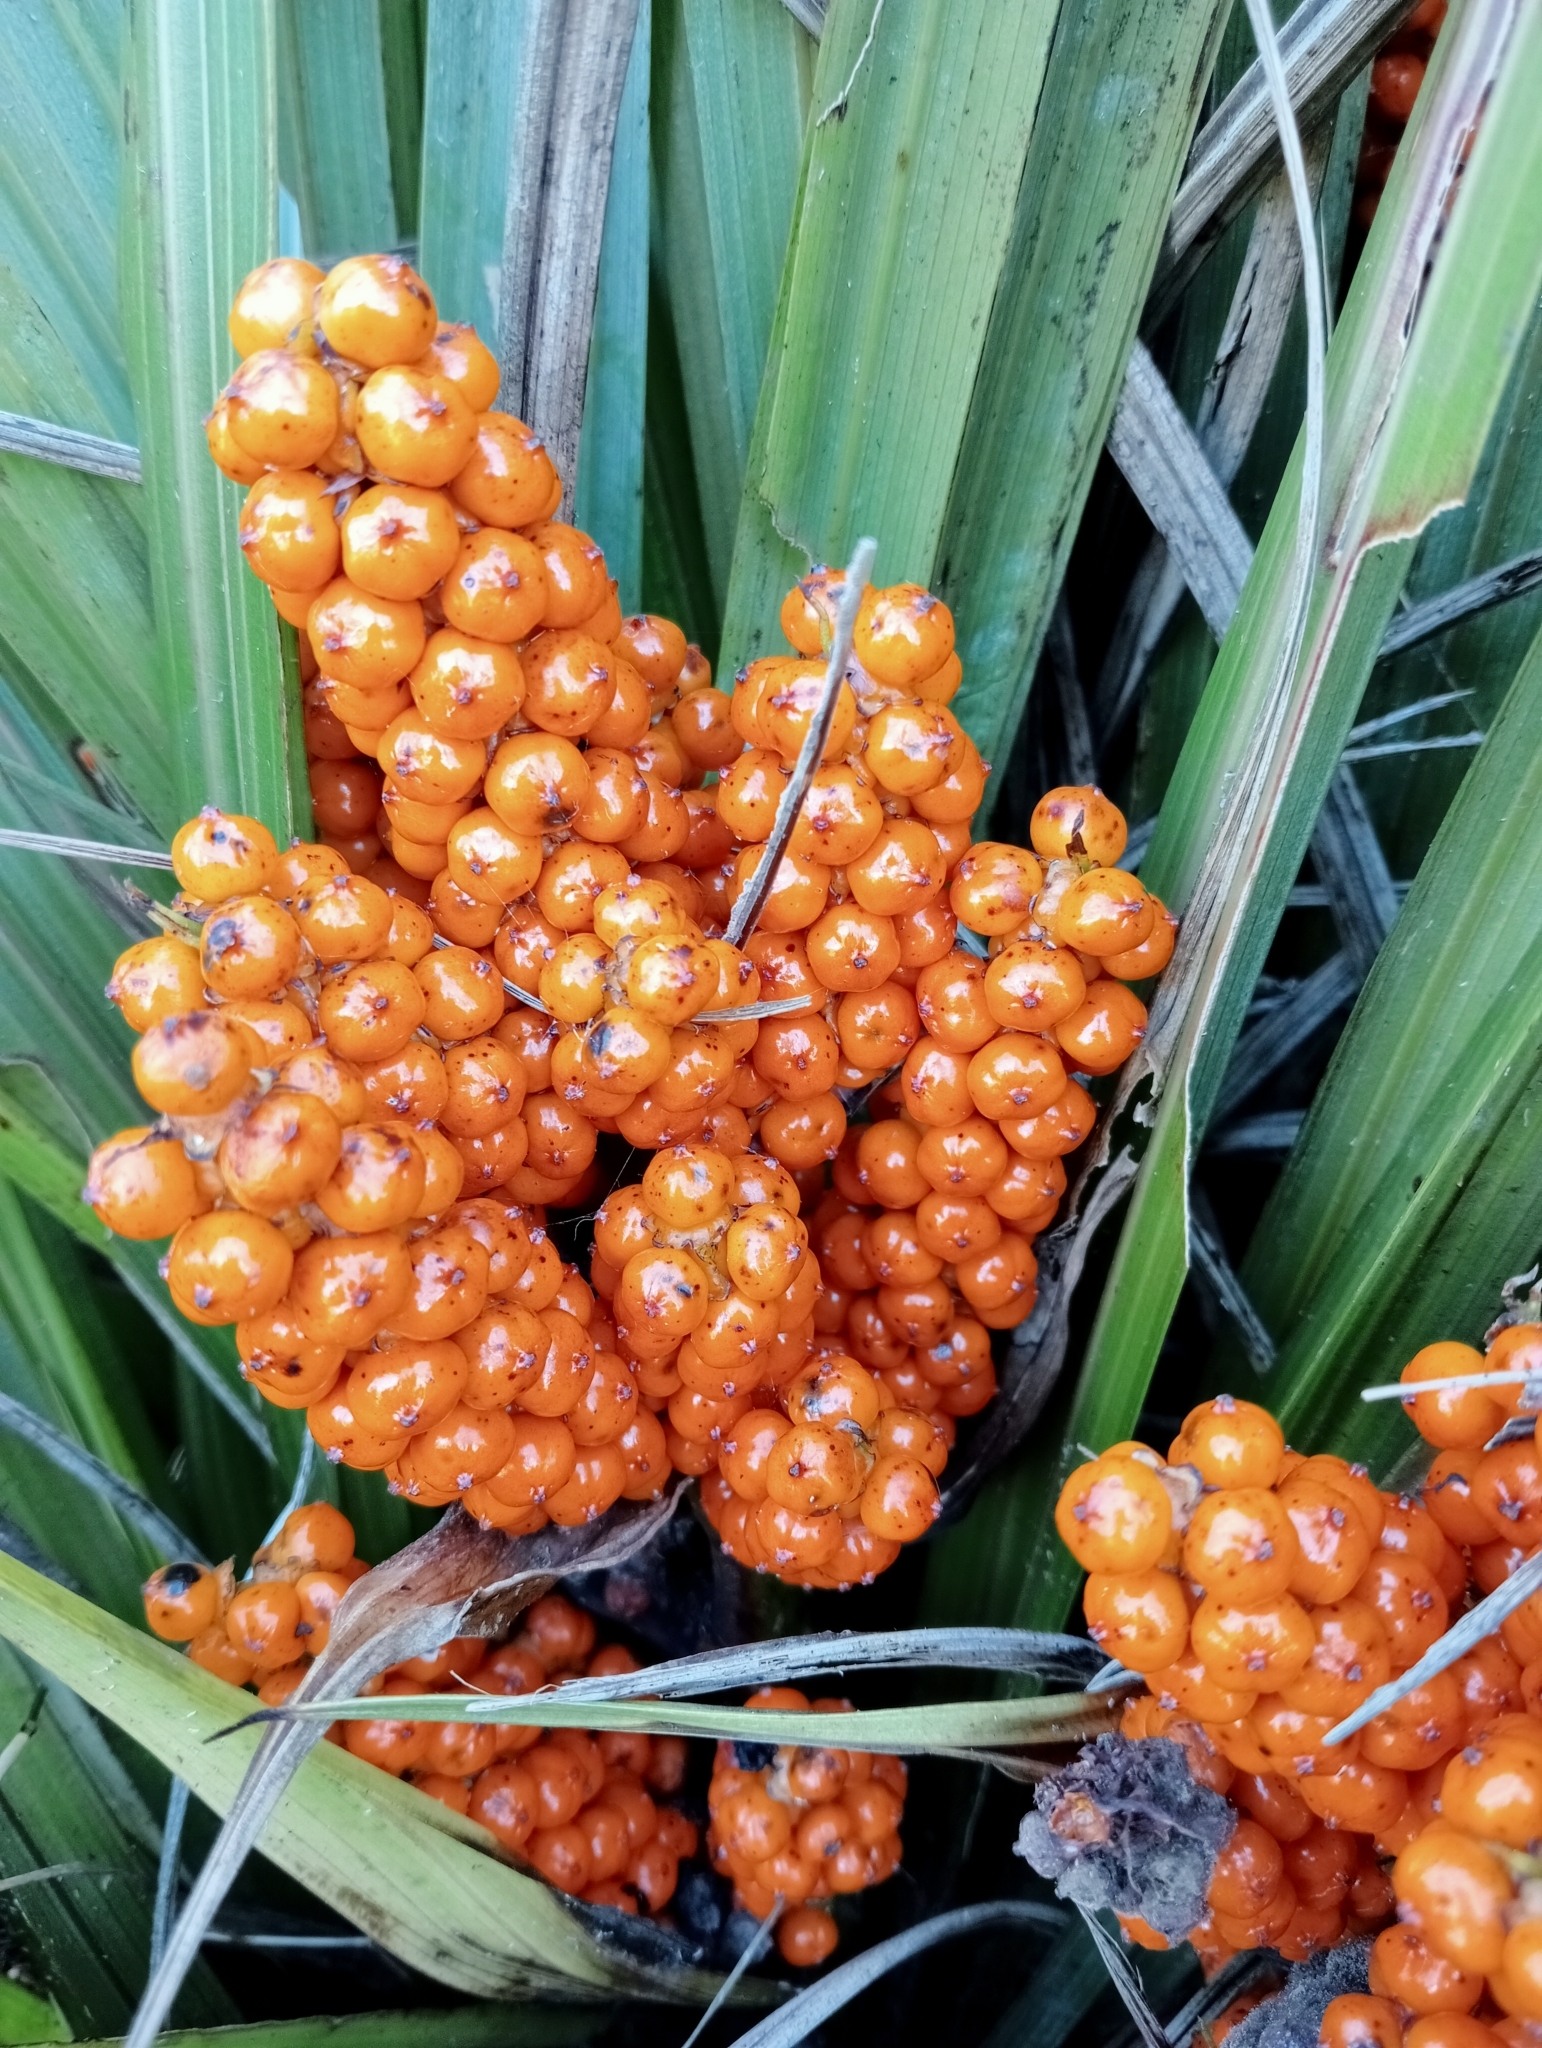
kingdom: Plantae
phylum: Tracheophyta
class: Liliopsida
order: Asparagales
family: Asteliaceae
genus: Astelia
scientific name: Astelia fragrans
